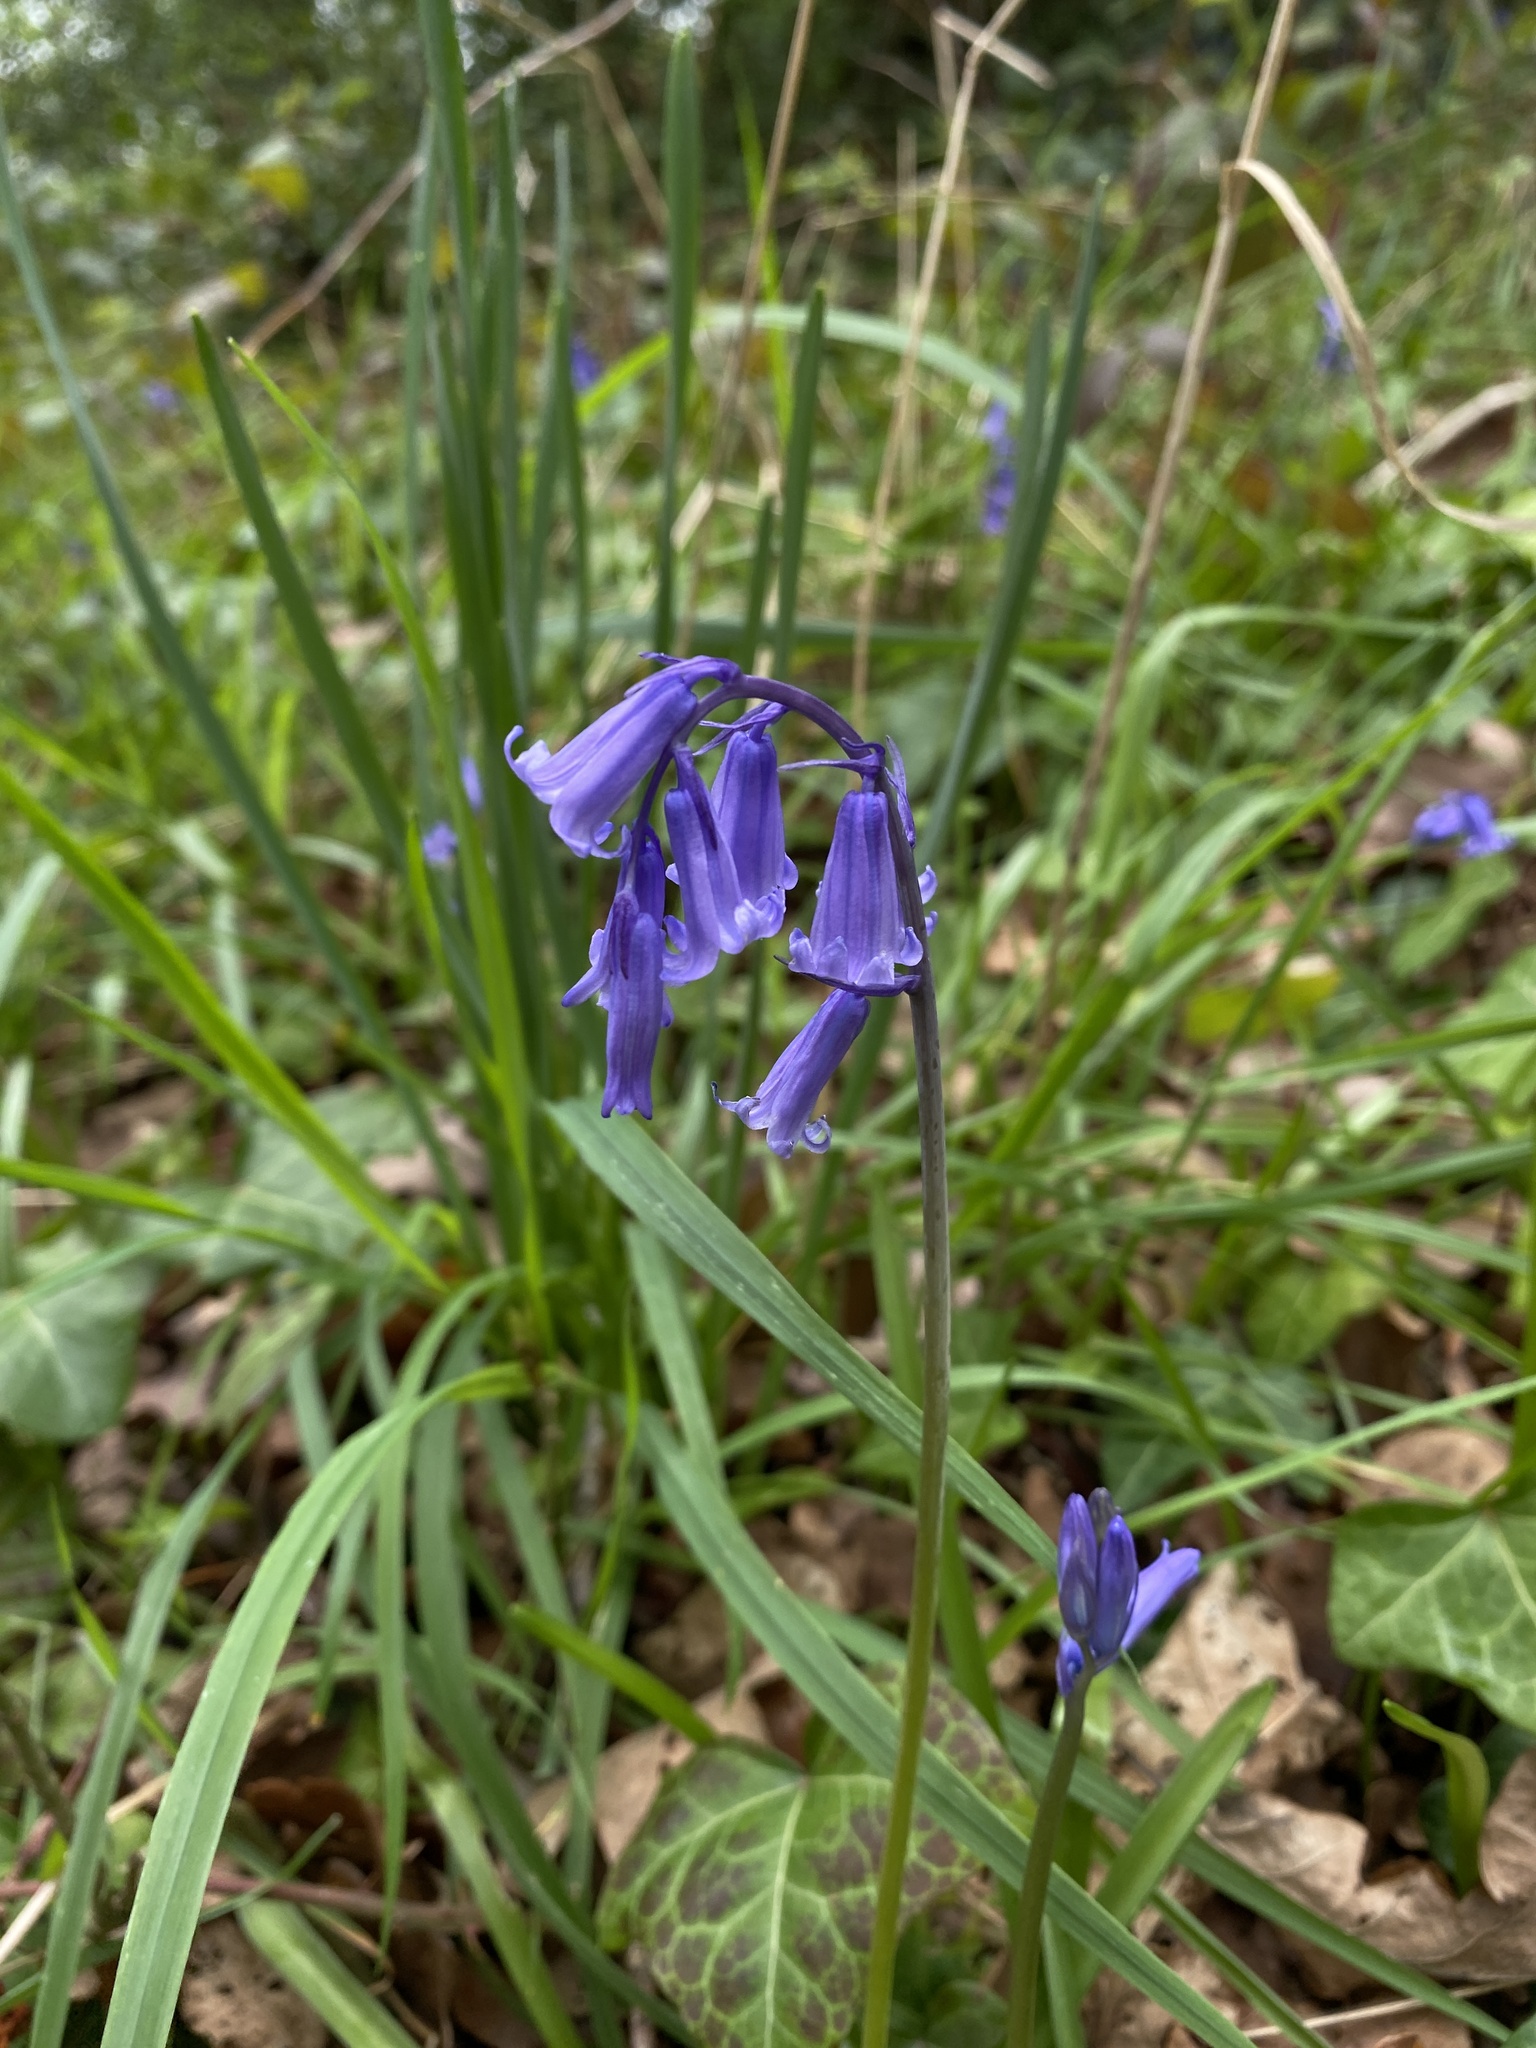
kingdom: Plantae
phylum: Tracheophyta
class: Liliopsida
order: Asparagales
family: Asparagaceae
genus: Hyacinthoides
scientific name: Hyacinthoides non-scripta
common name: Bluebell
